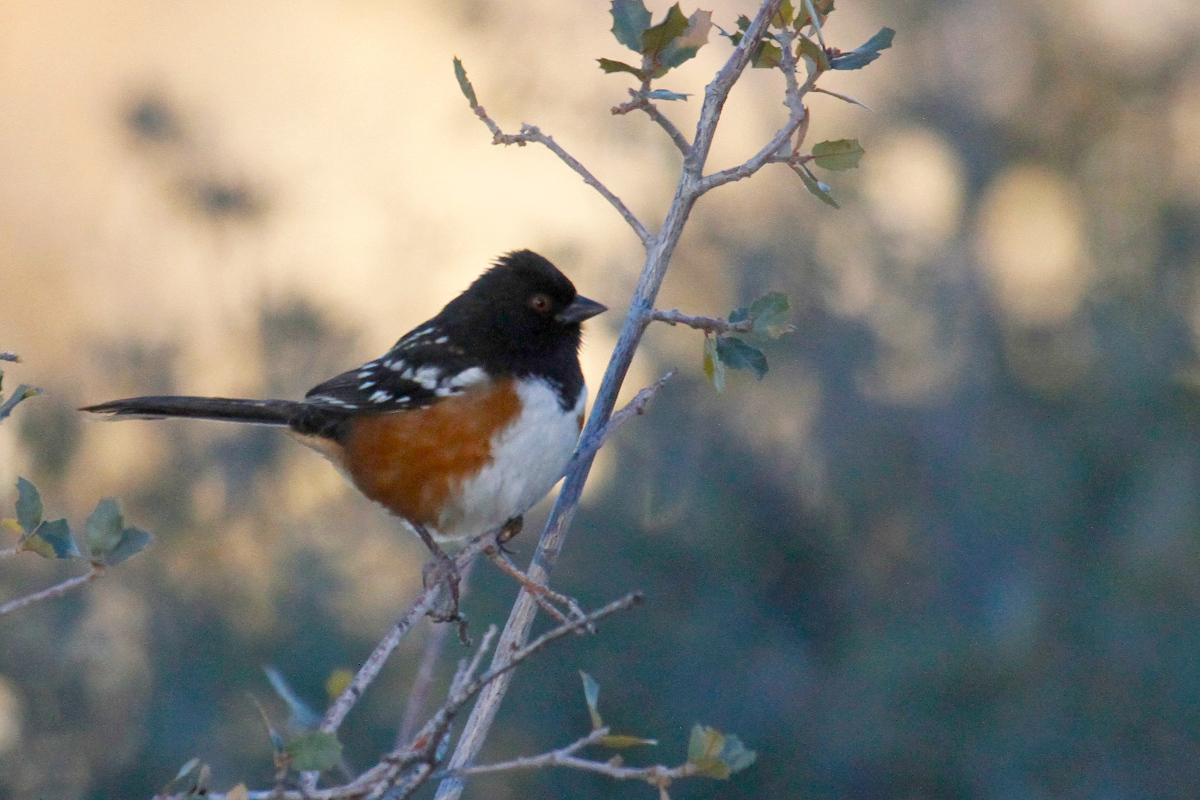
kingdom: Animalia
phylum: Chordata
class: Aves
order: Passeriformes
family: Passerellidae
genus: Pipilo
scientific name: Pipilo maculatus
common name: Spotted towhee
